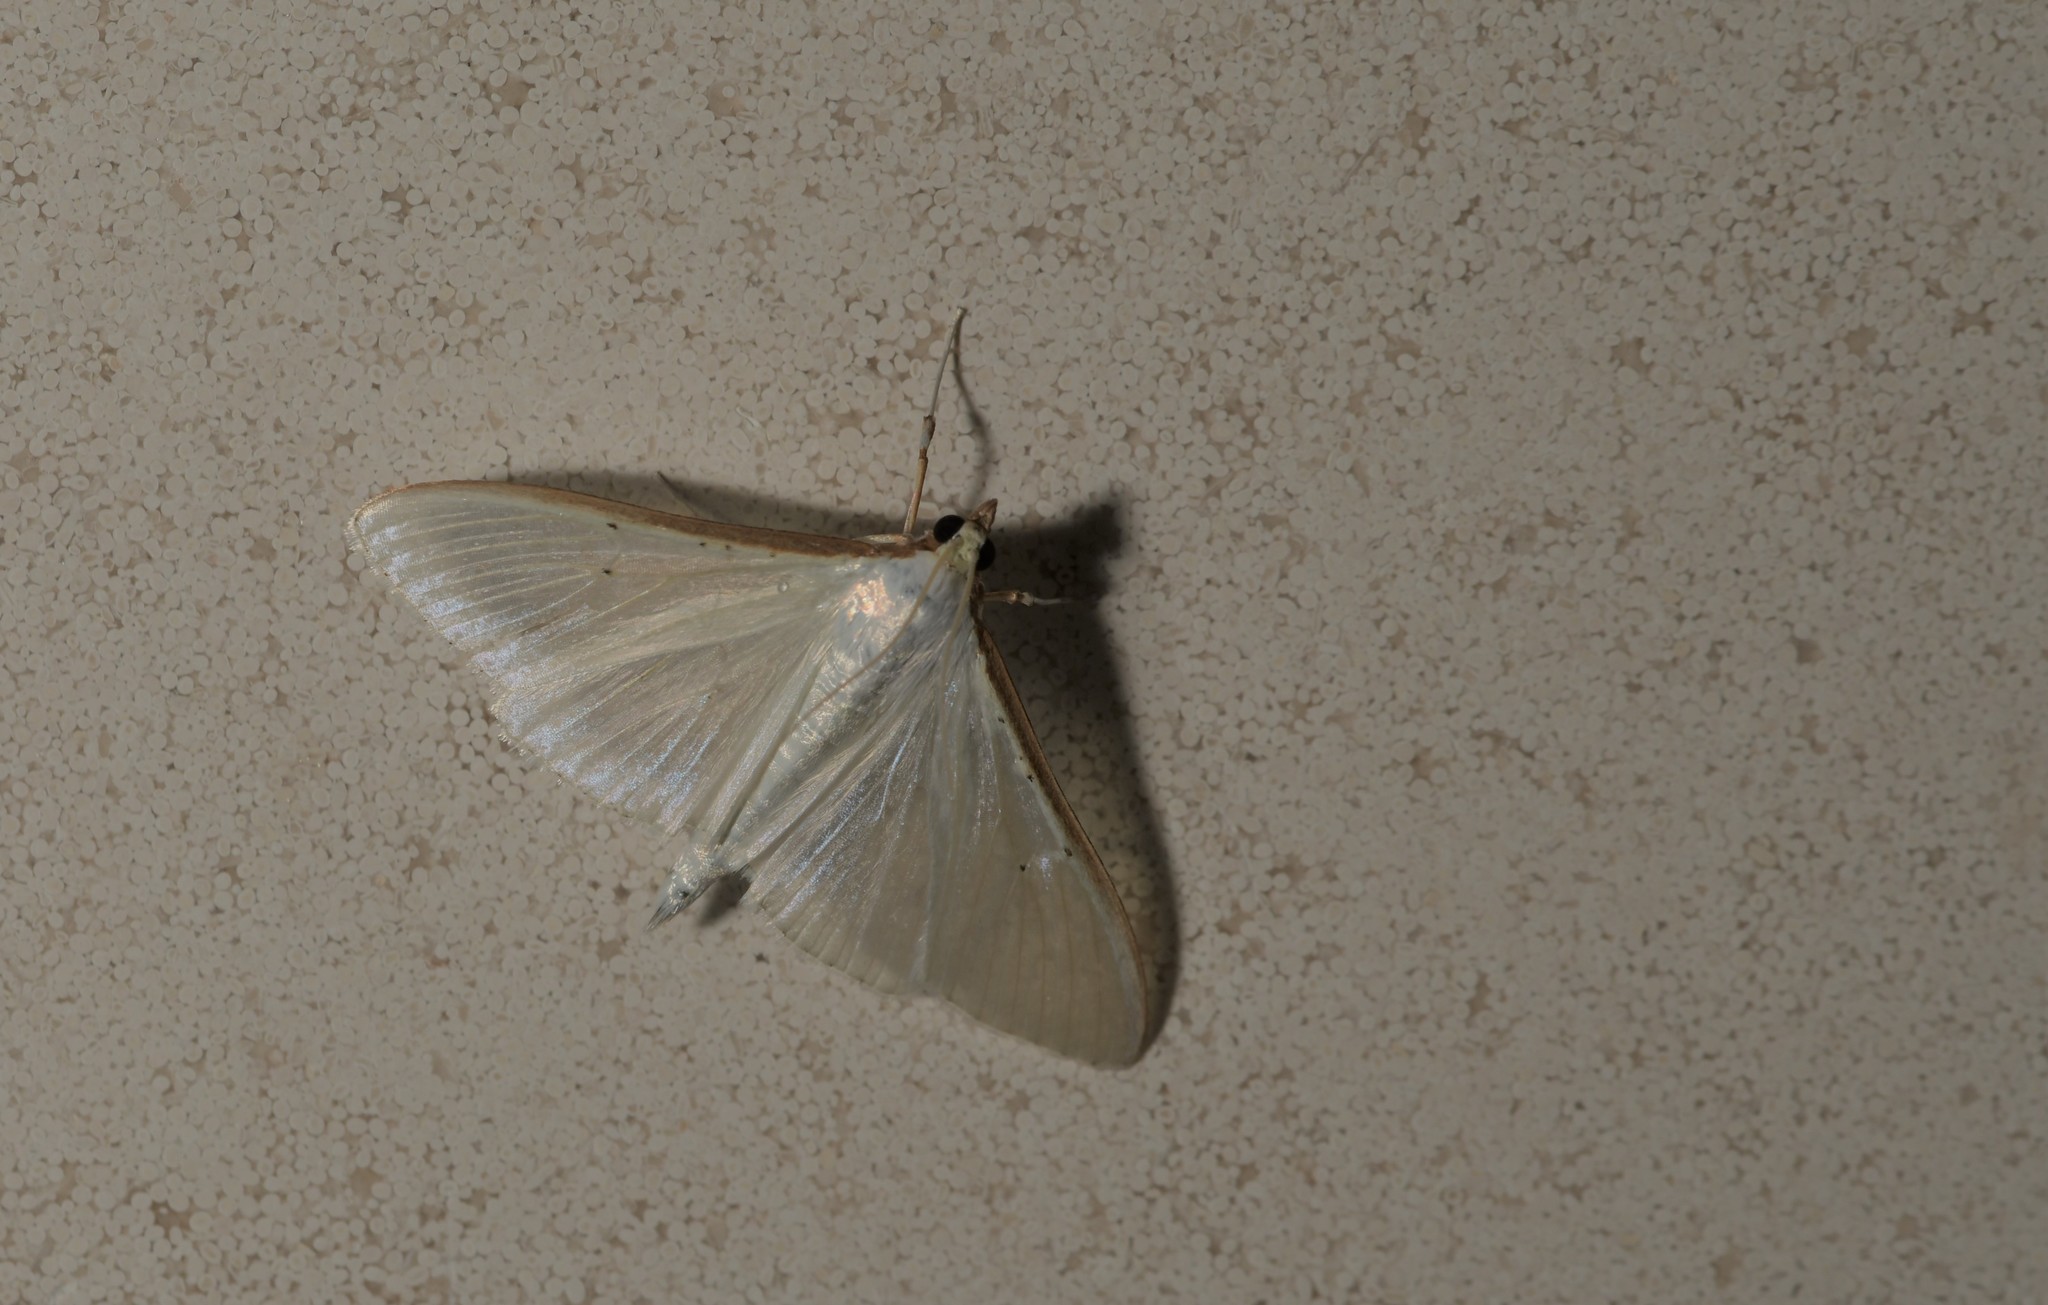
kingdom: Animalia
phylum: Arthropoda
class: Insecta
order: Lepidoptera
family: Crambidae
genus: Palpita
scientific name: Palpita vitrealis
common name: Olive-tree pearl
